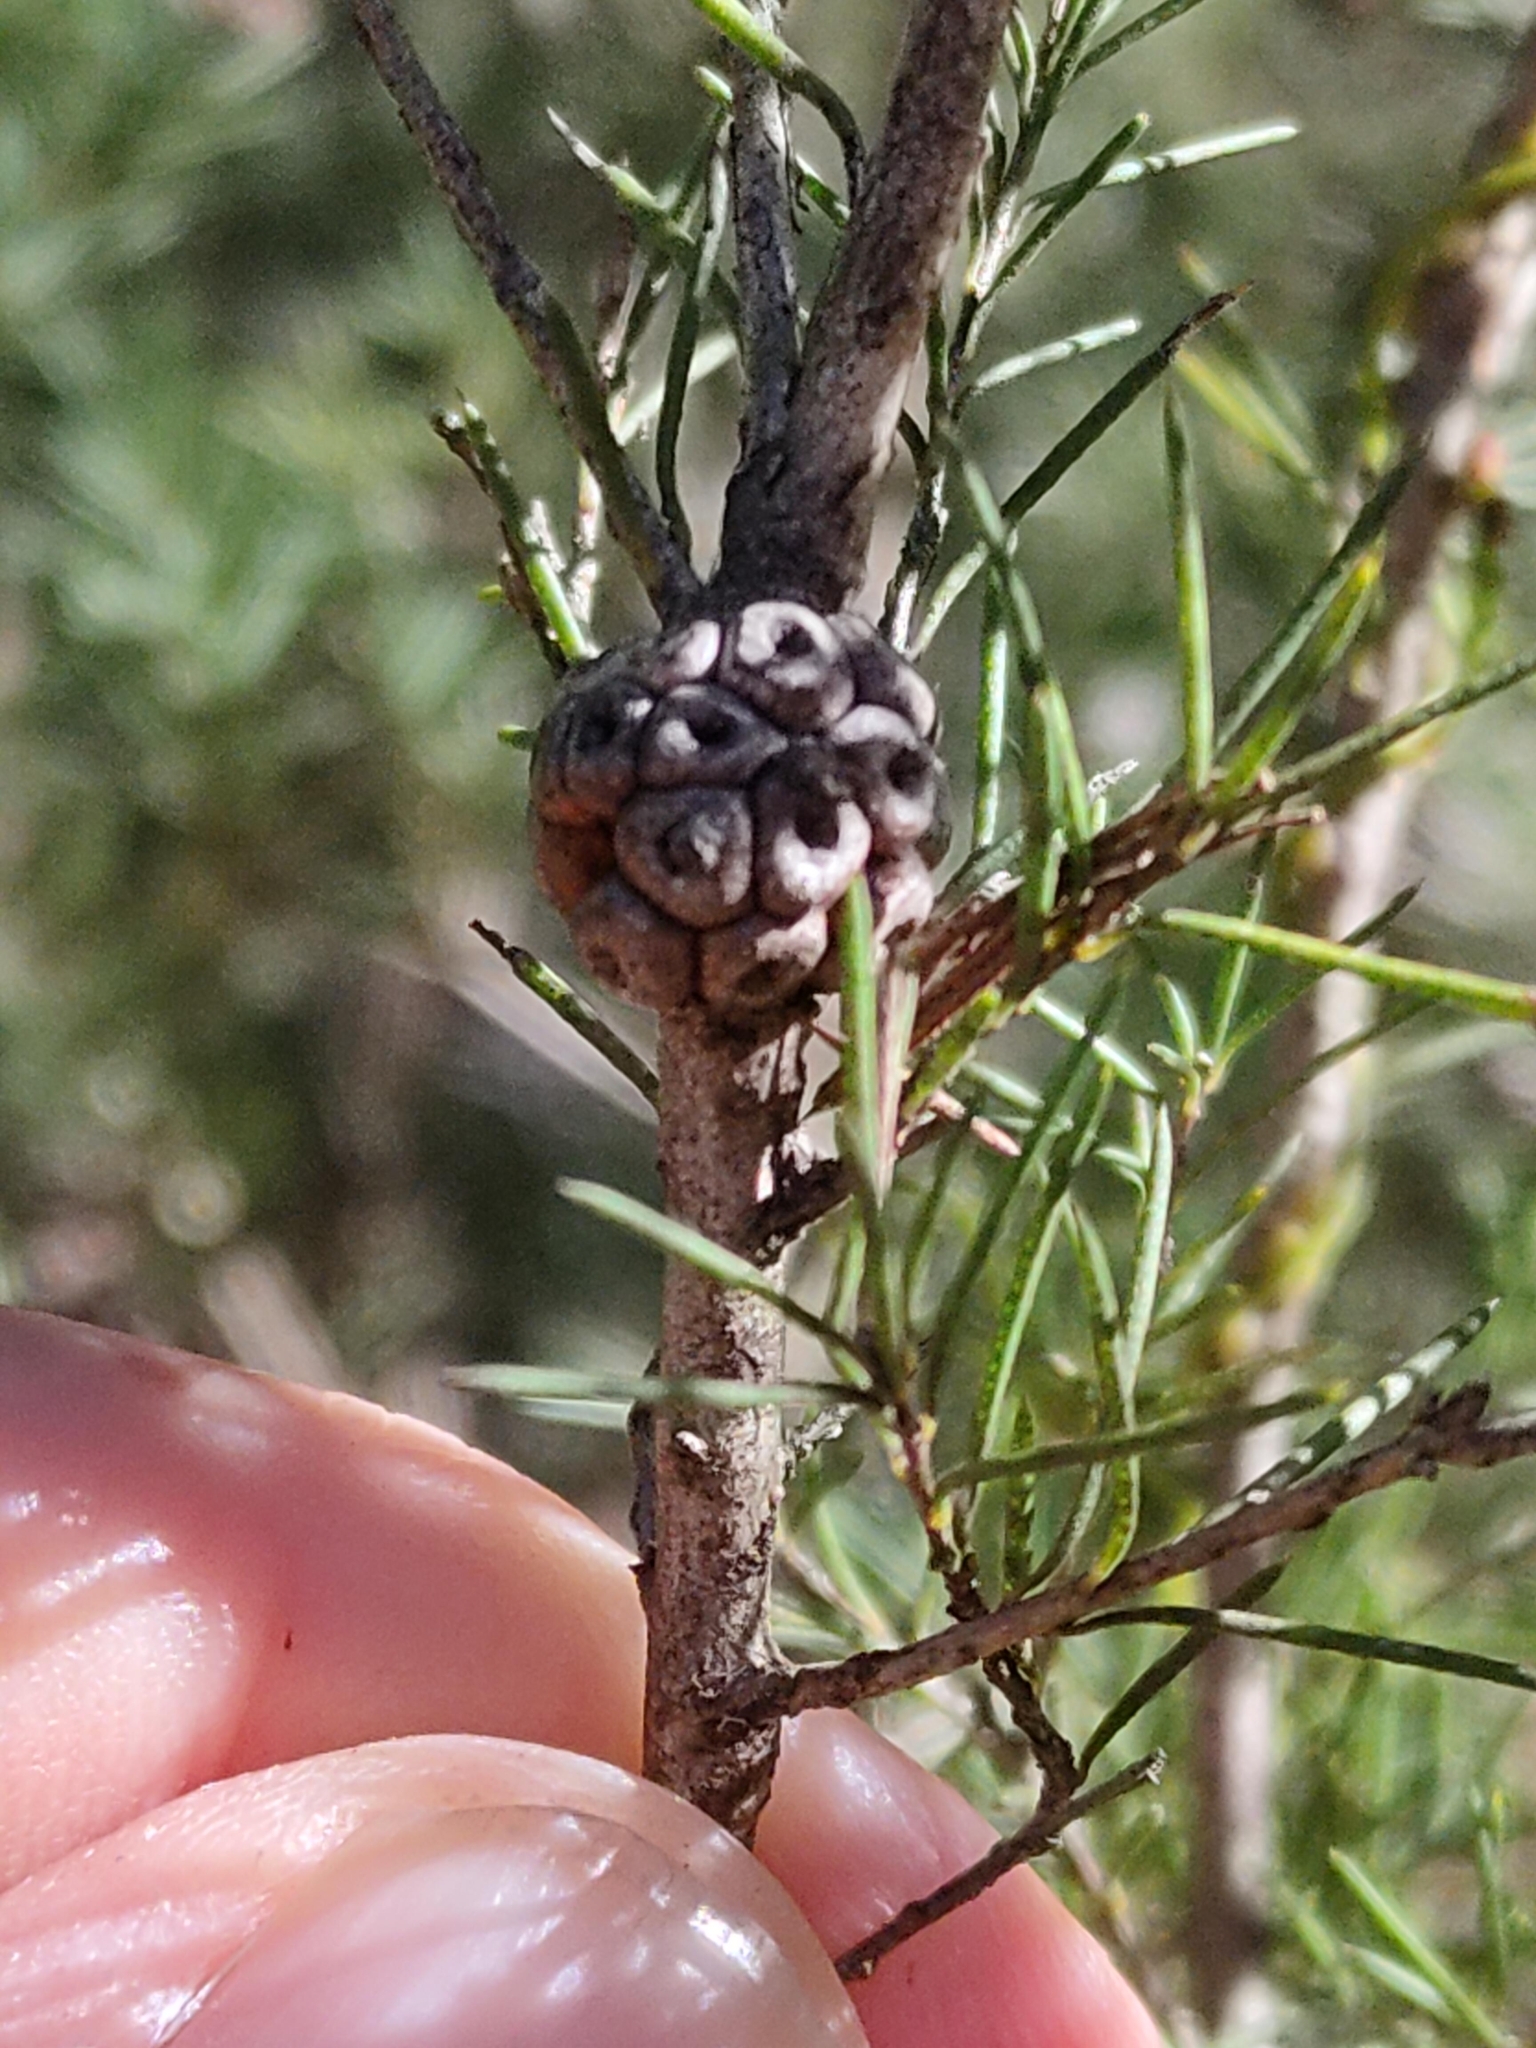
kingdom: Plantae
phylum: Tracheophyta
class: Magnoliopsida
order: Myrtales
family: Myrtaceae
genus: Melaleuca
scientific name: Melaleuca nodosa
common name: Prickly-leaf paperbark
